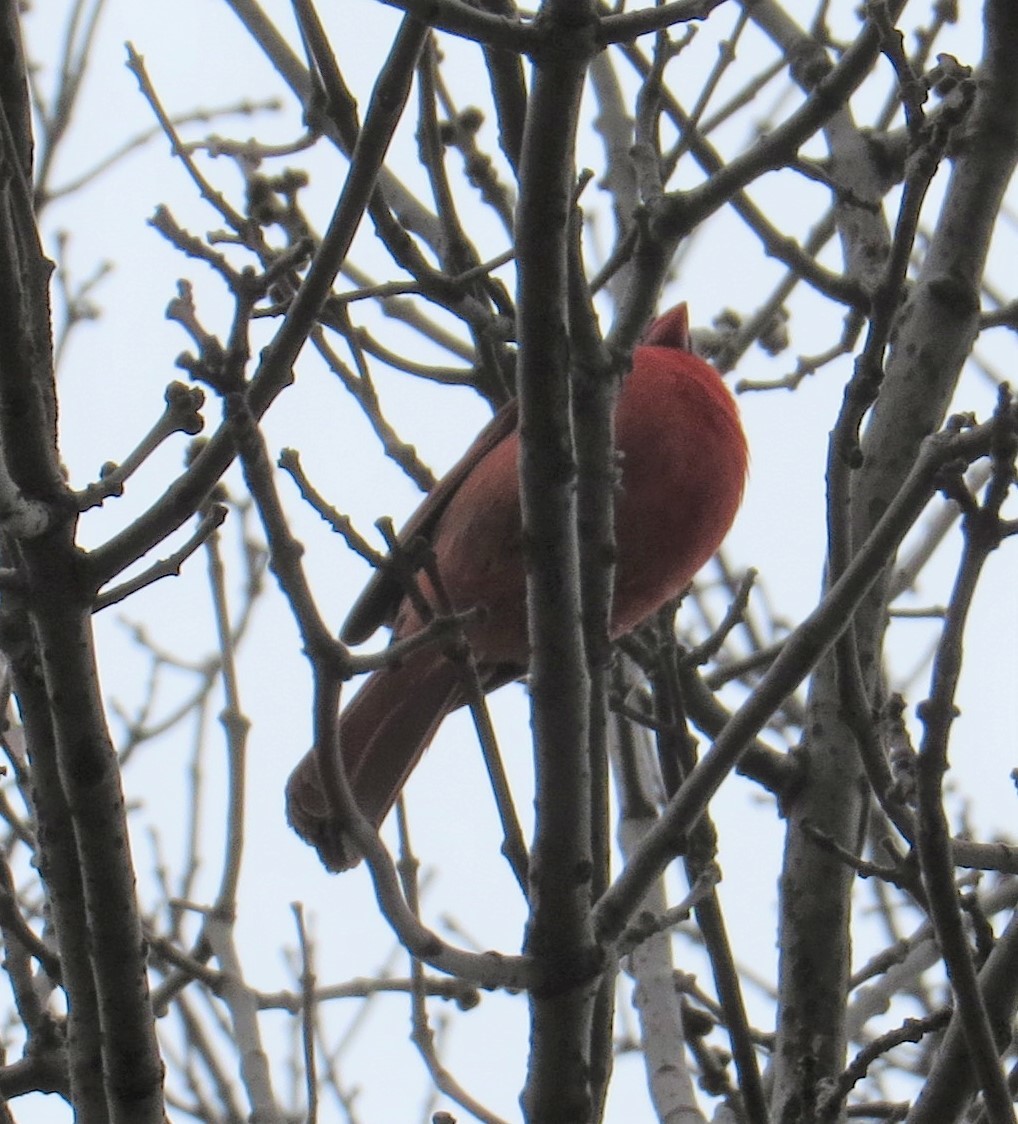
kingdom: Animalia
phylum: Chordata
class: Aves
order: Passeriformes
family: Cardinalidae
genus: Cardinalis
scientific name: Cardinalis cardinalis
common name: Northern cardinal
